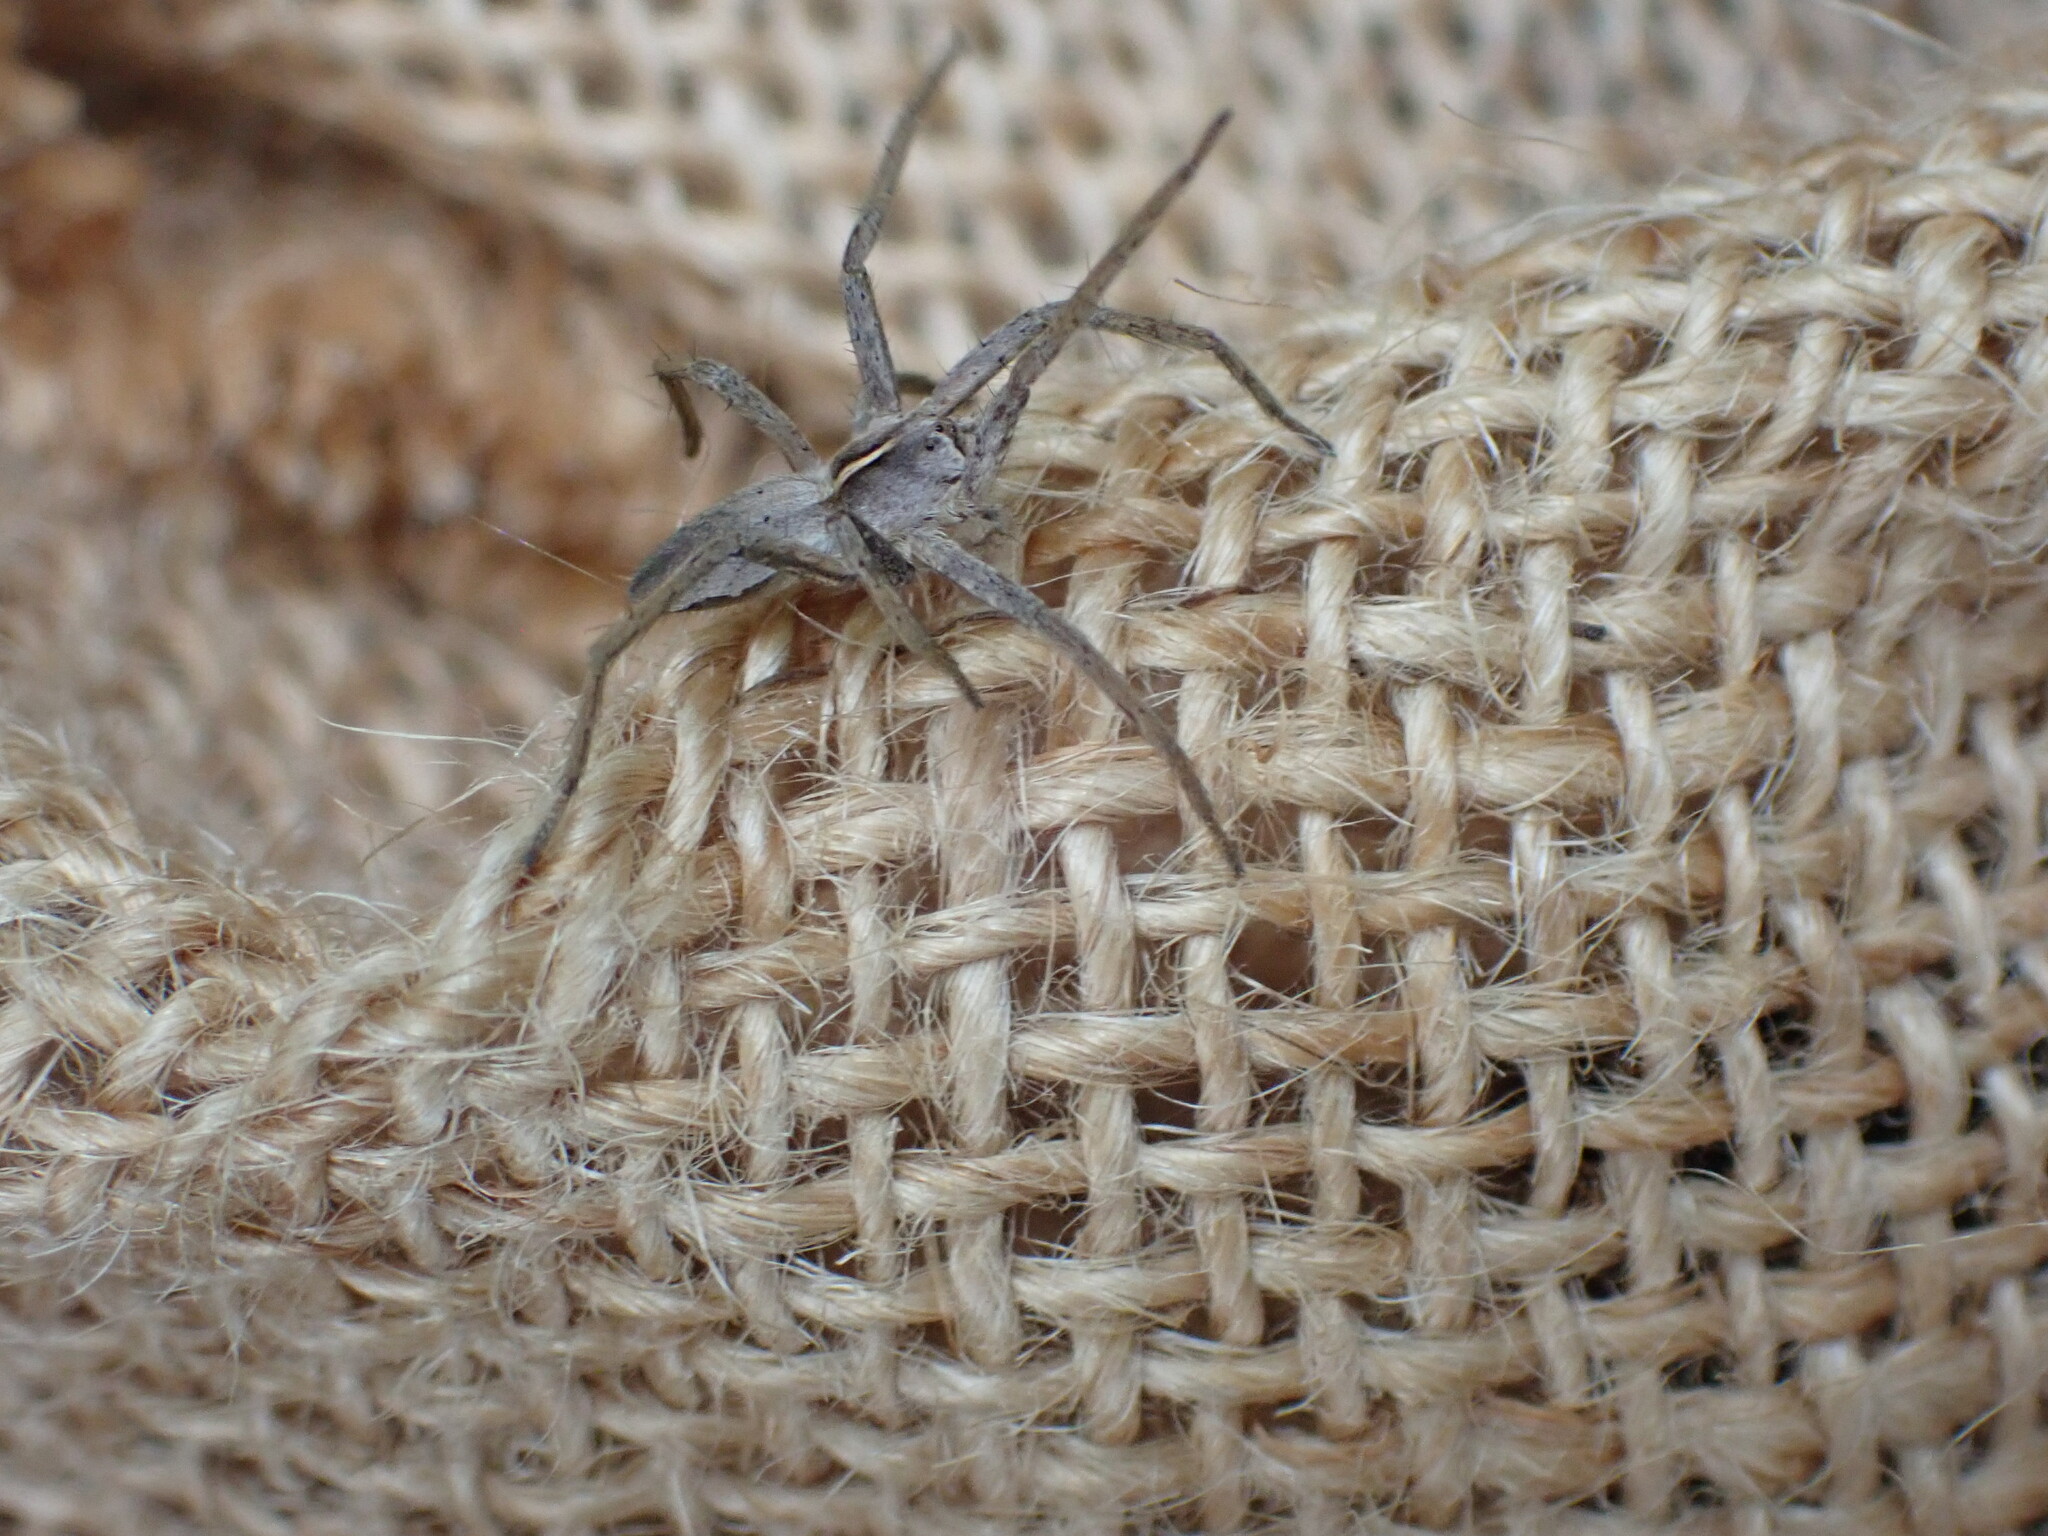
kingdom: Animalia
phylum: Arthropoda
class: Arachnida
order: Araneae
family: Pisauridae
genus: Pisaura
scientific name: Pisaura mirabilis
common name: Tent spider
